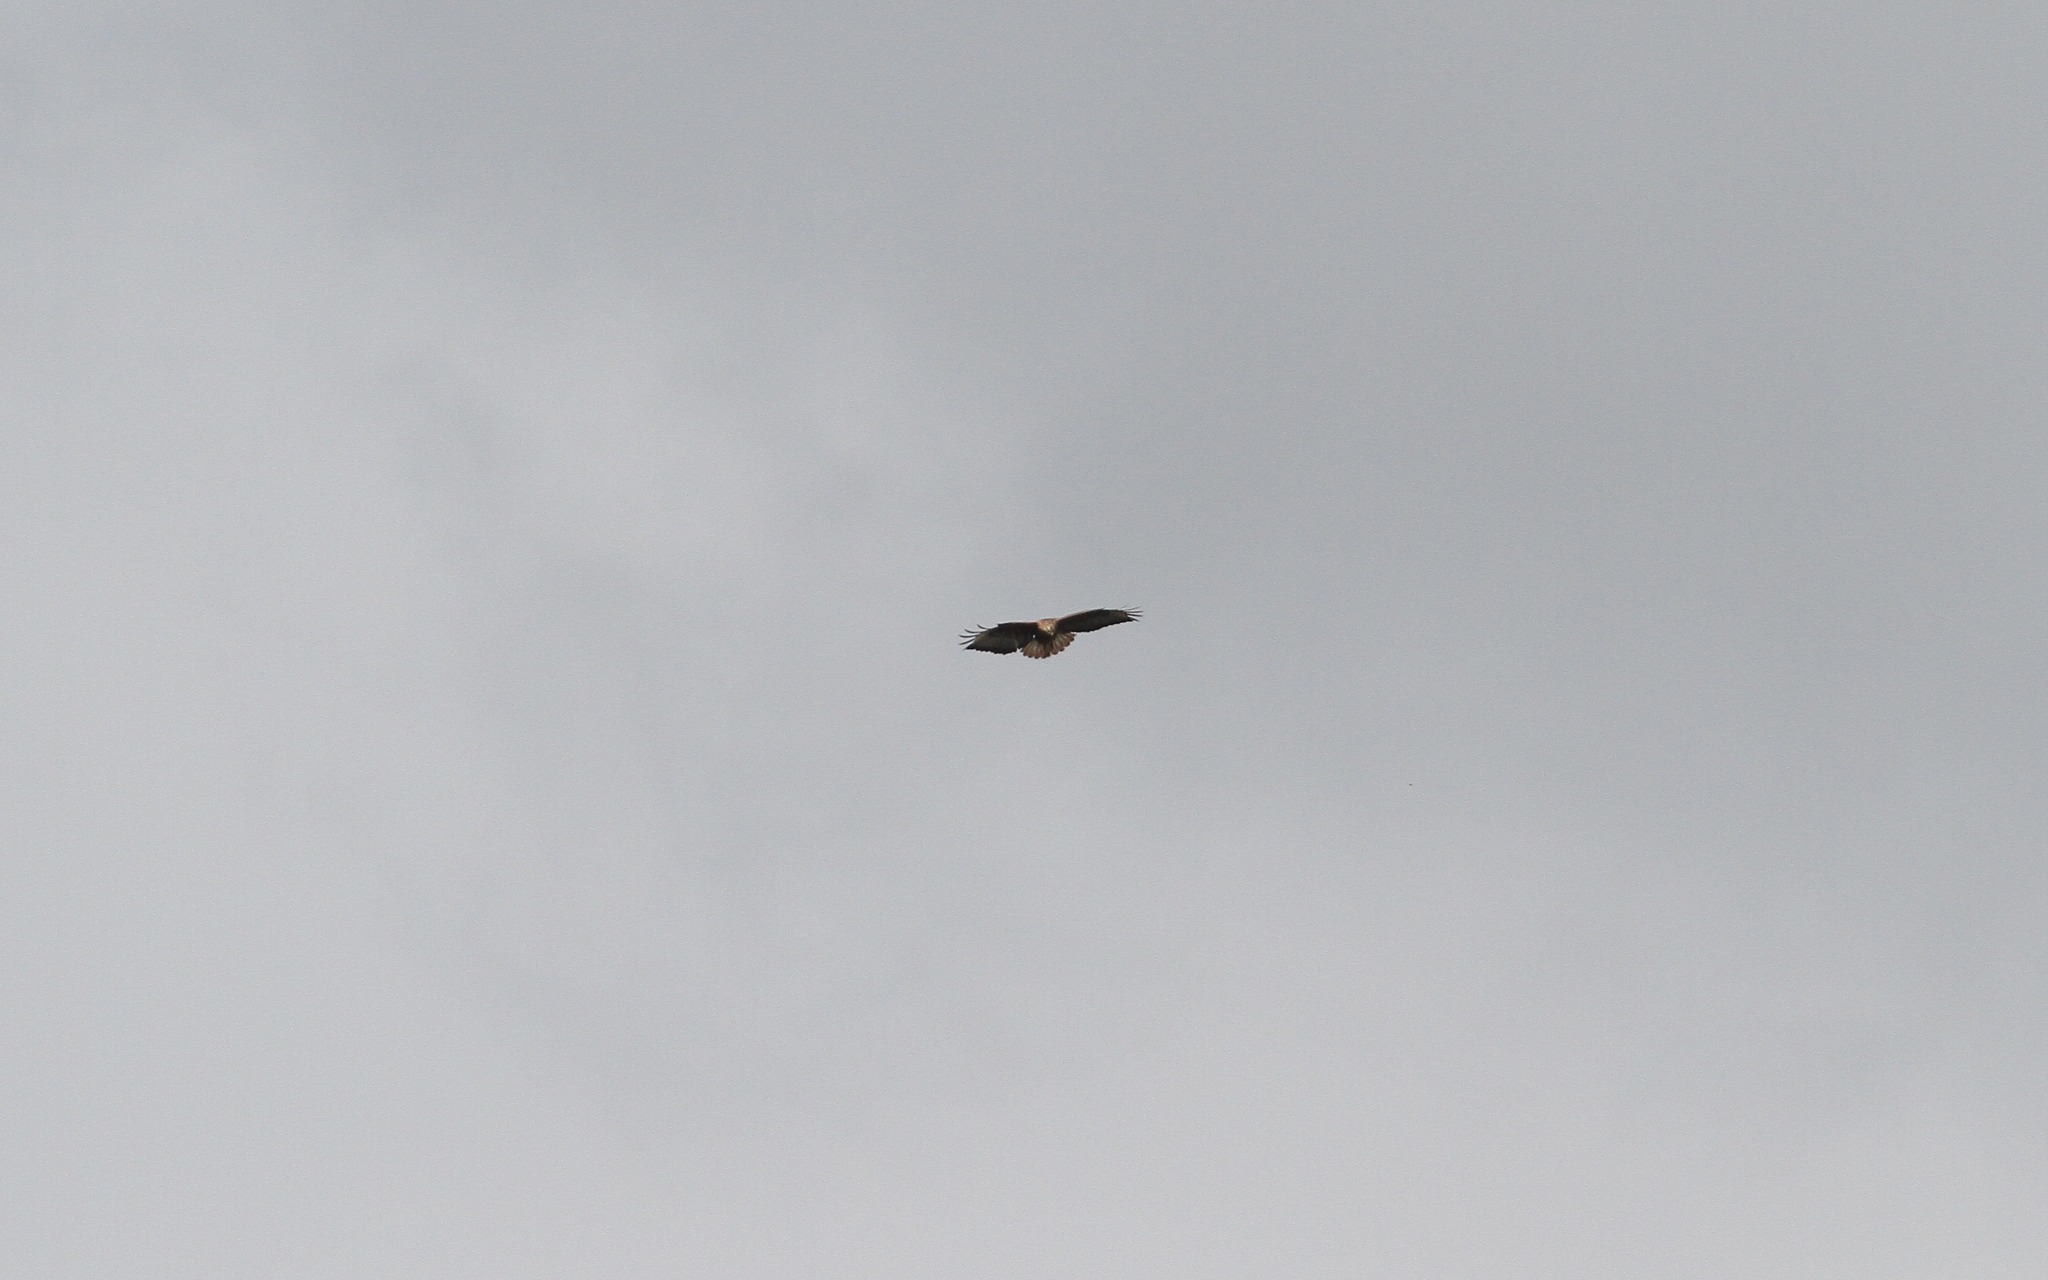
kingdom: Animalia
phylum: Chordata
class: Aves
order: Accipitriformes
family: Accipitridae
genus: Buteo
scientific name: Buteo rufinus
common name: Long-legged buzzard
